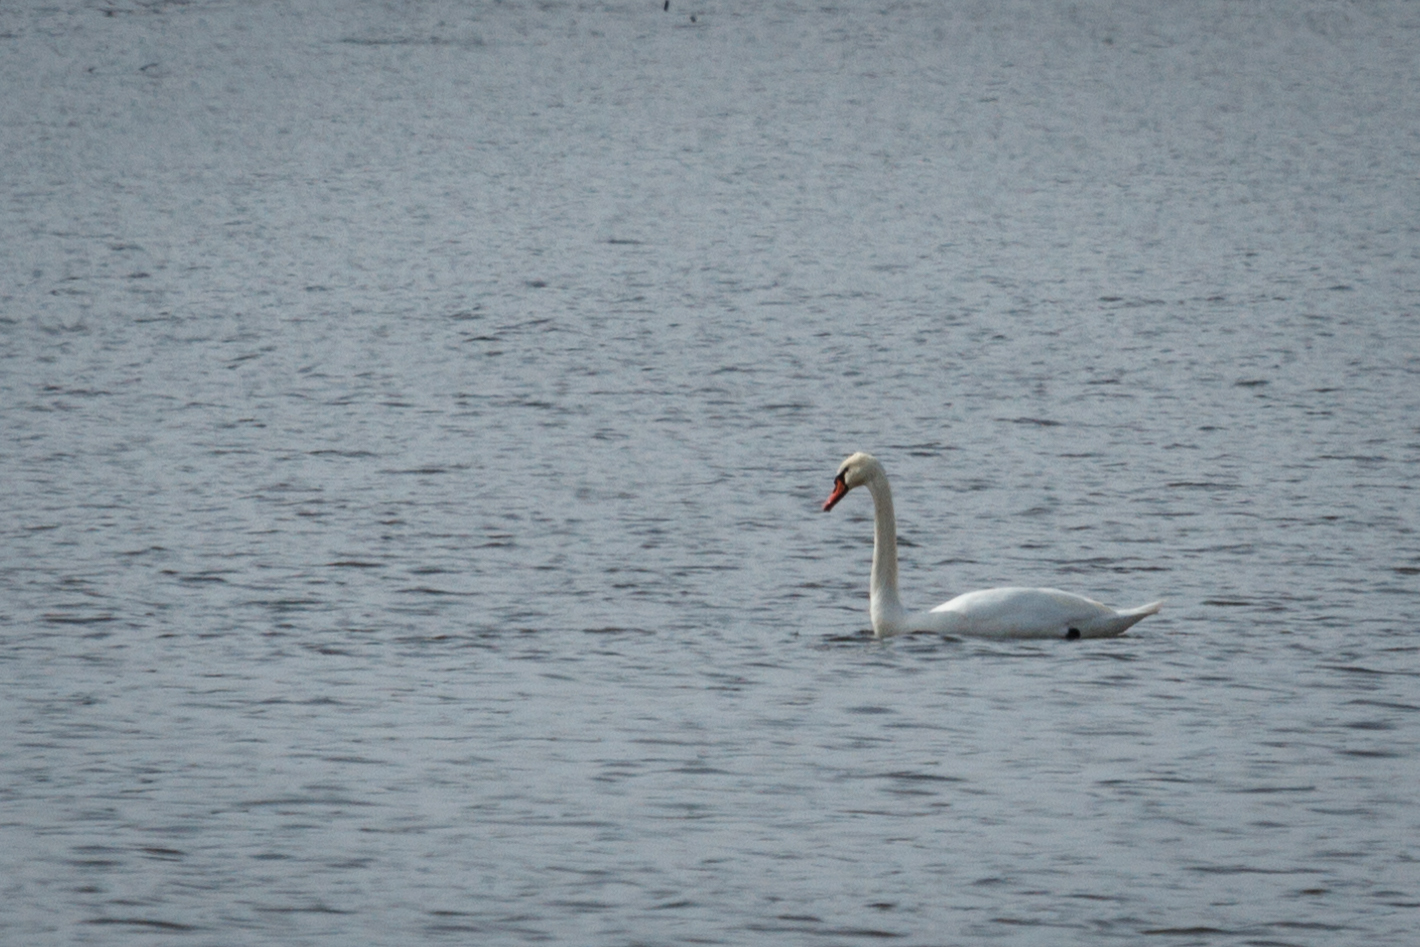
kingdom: Animalia
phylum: Chordata
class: Aves
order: Anseriformes
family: Anatidae
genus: Cygnus
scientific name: Cygnus olor
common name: Mute swan
